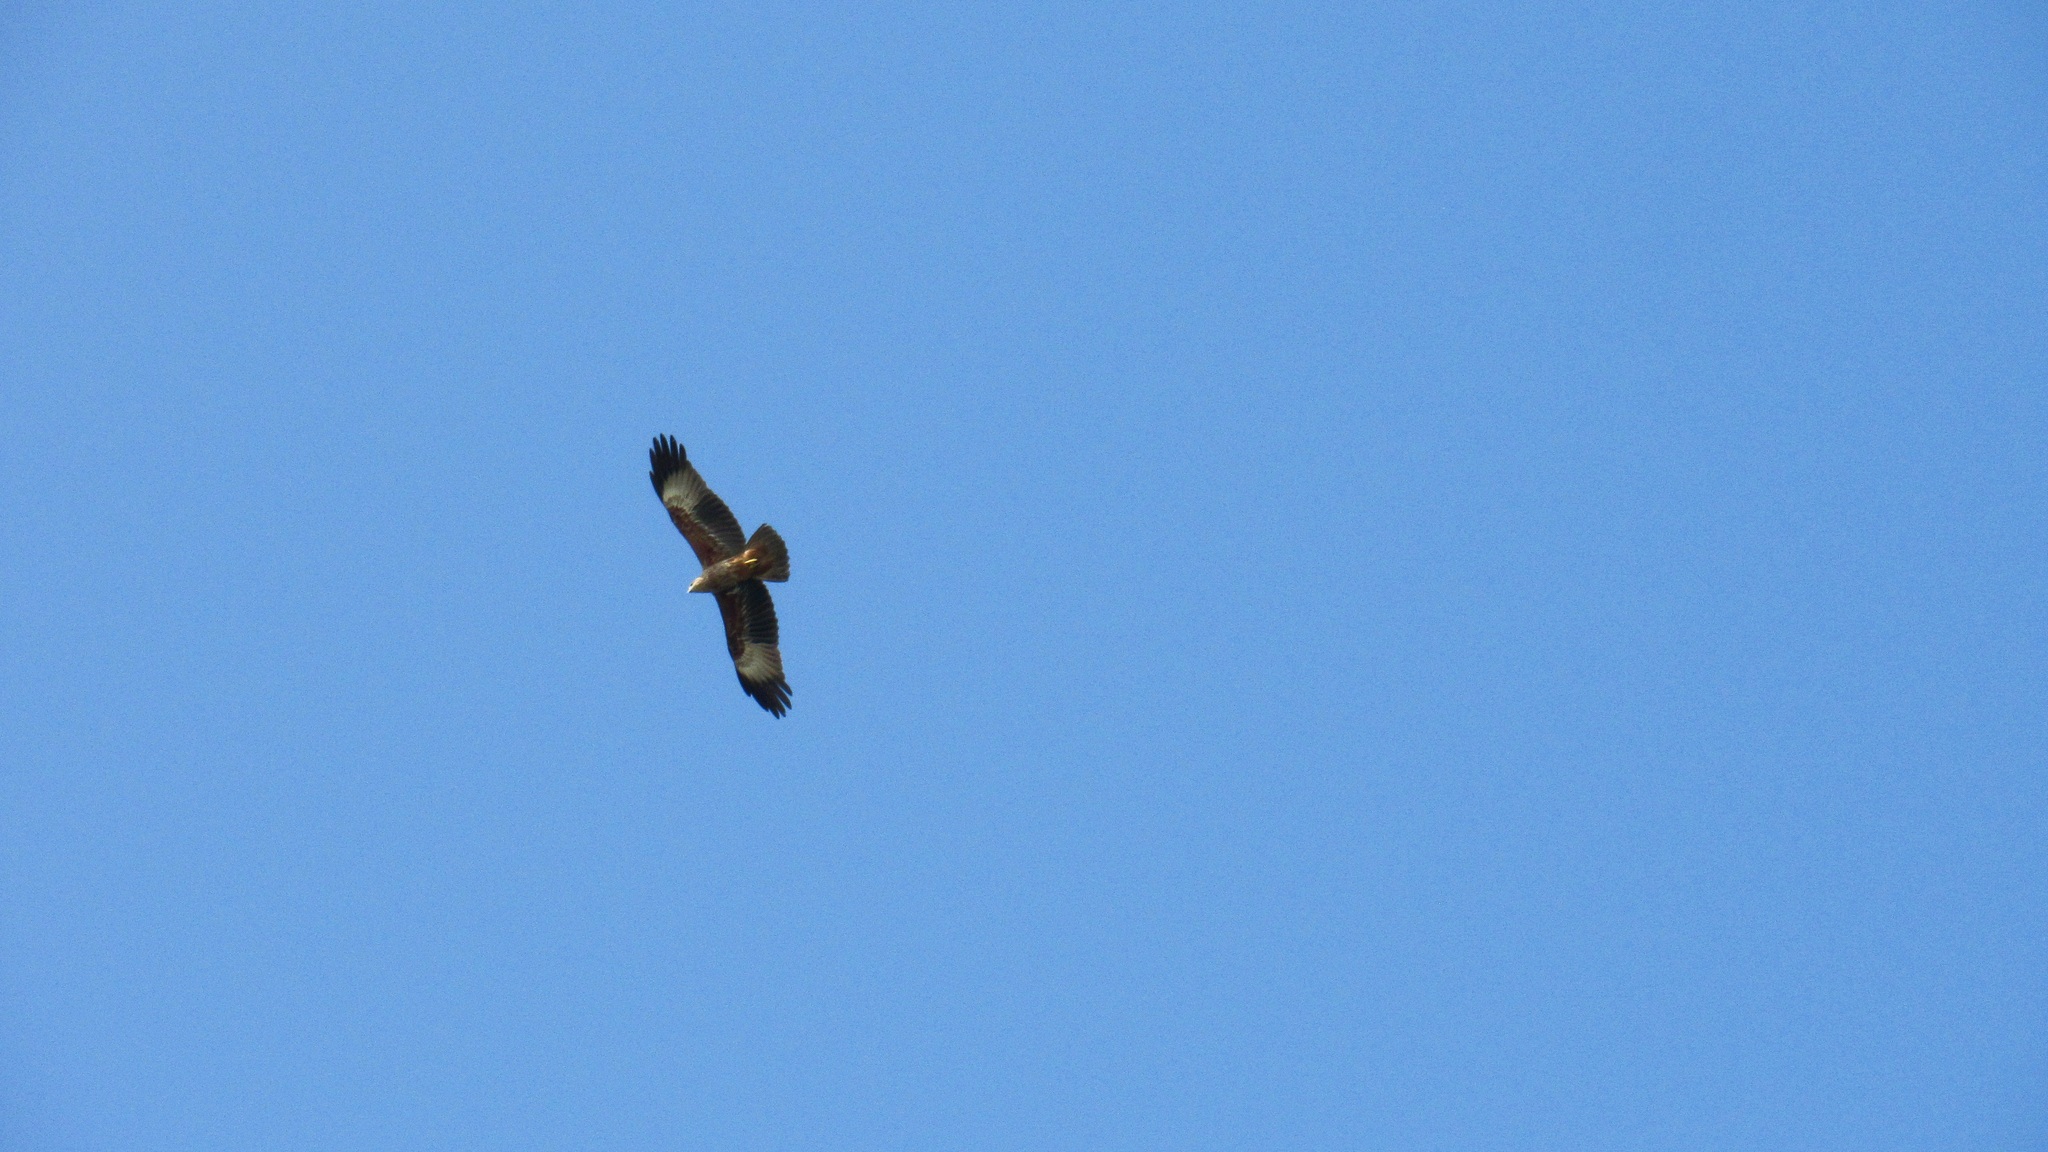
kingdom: Animalia
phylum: Chordata
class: Aves
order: Accipitriformes
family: Accipitridae
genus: Haliastur
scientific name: Haliastur indus
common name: Brahminy kite
